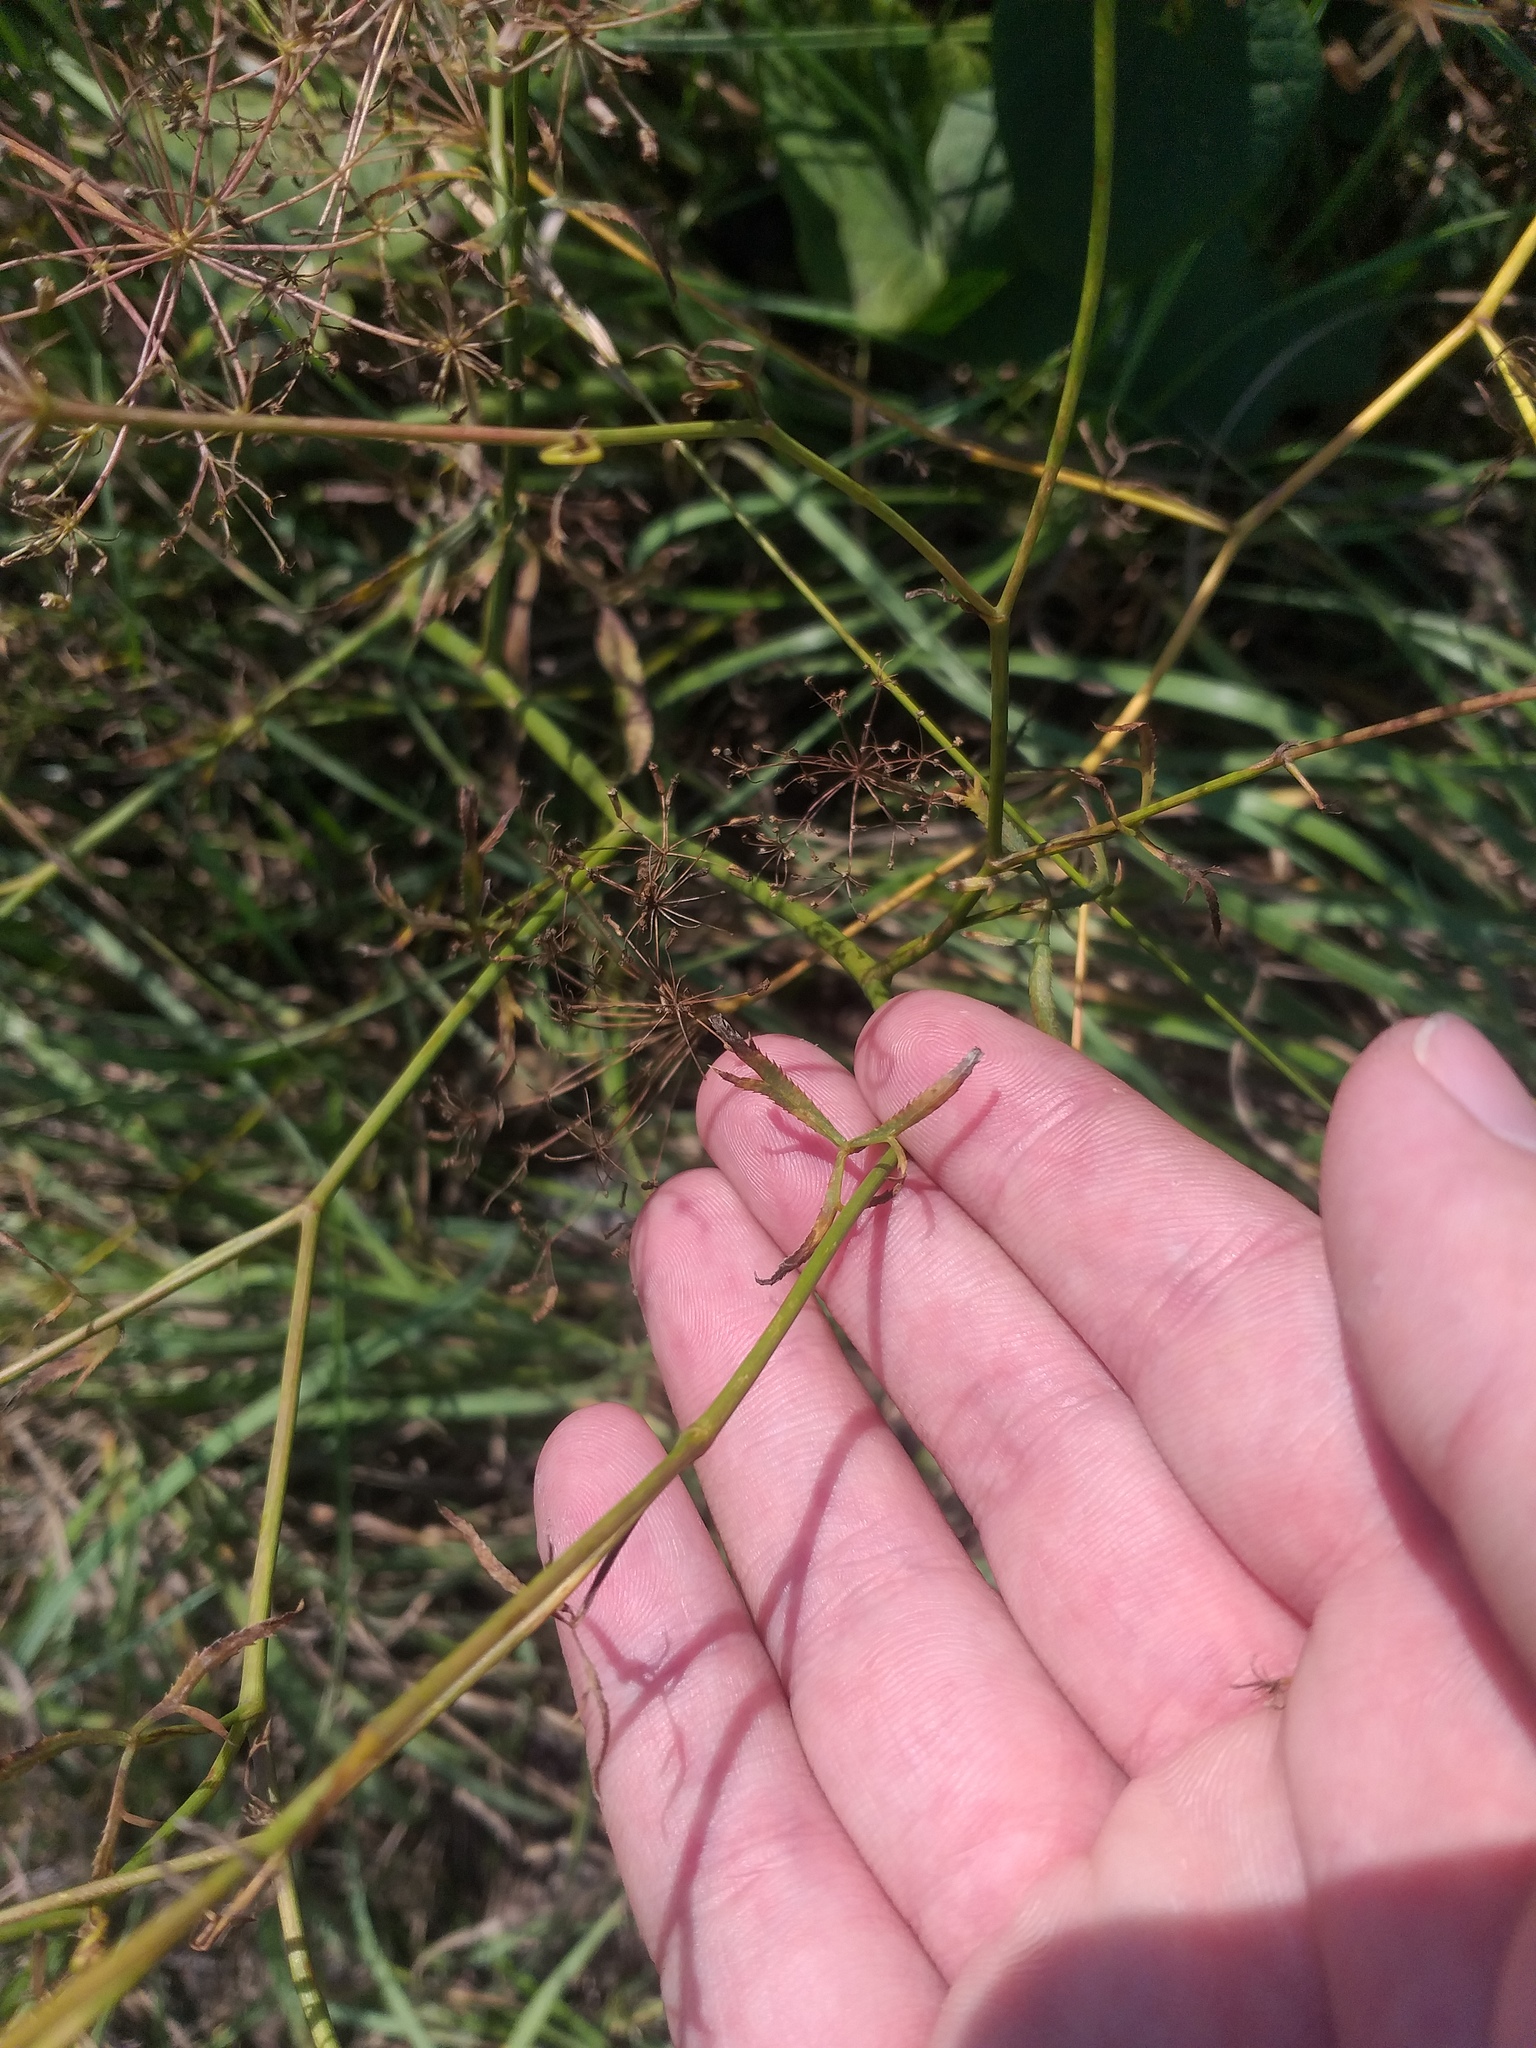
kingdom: Plantae
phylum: Tracheophyta
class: Magnoliopsida
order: Apiales
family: Apiaceae
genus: Falcaria
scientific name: Falcaria vulgaris
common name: Longleaf
